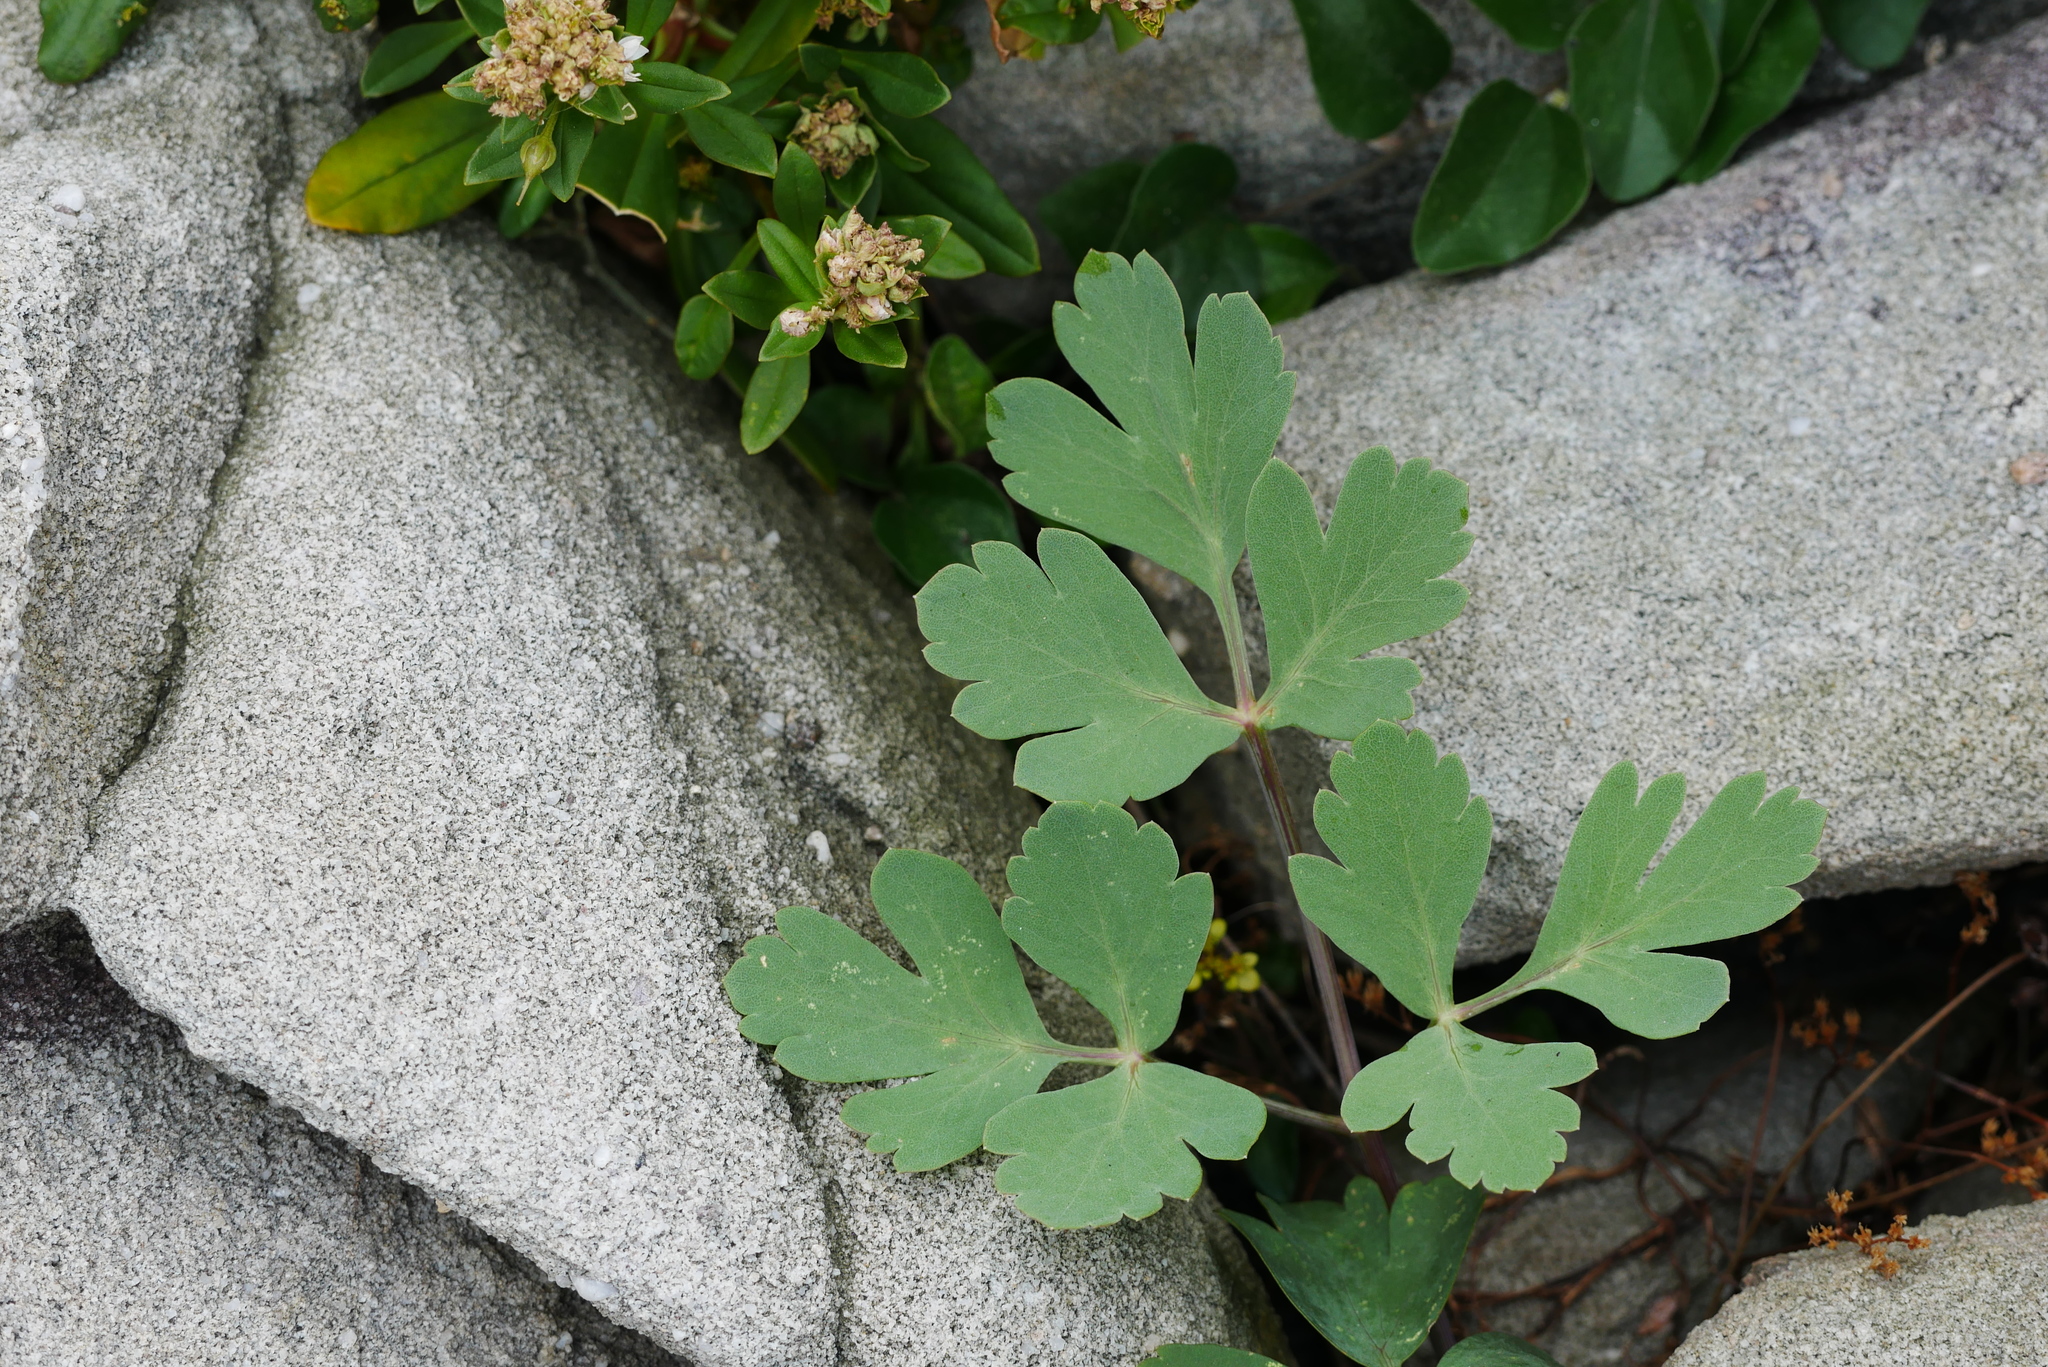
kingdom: Plantae
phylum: Tracheophyta
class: Magnoliopsida
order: Apiales
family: Apiaceae
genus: Peucedanum
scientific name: Peucedanum japonicum
